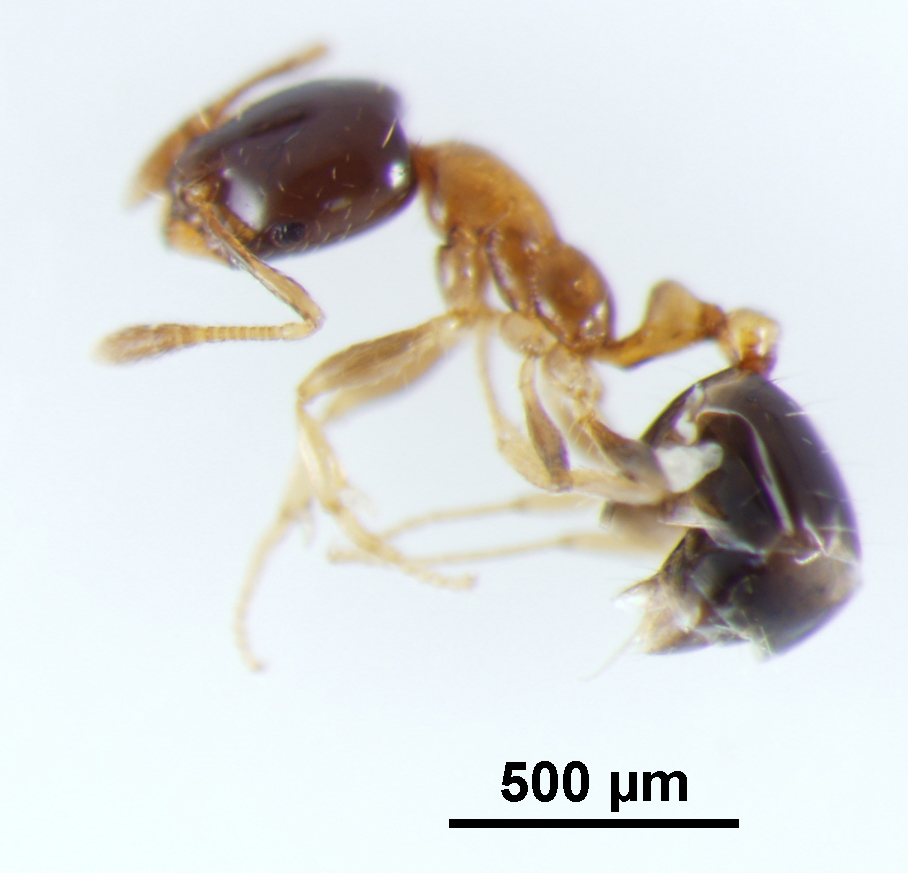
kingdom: Animalia
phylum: Arthropoda
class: Insecta
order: Hymenoptera
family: Formicidae
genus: Monomorium
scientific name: Monomorium floricola
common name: Bicolored trailing ant
